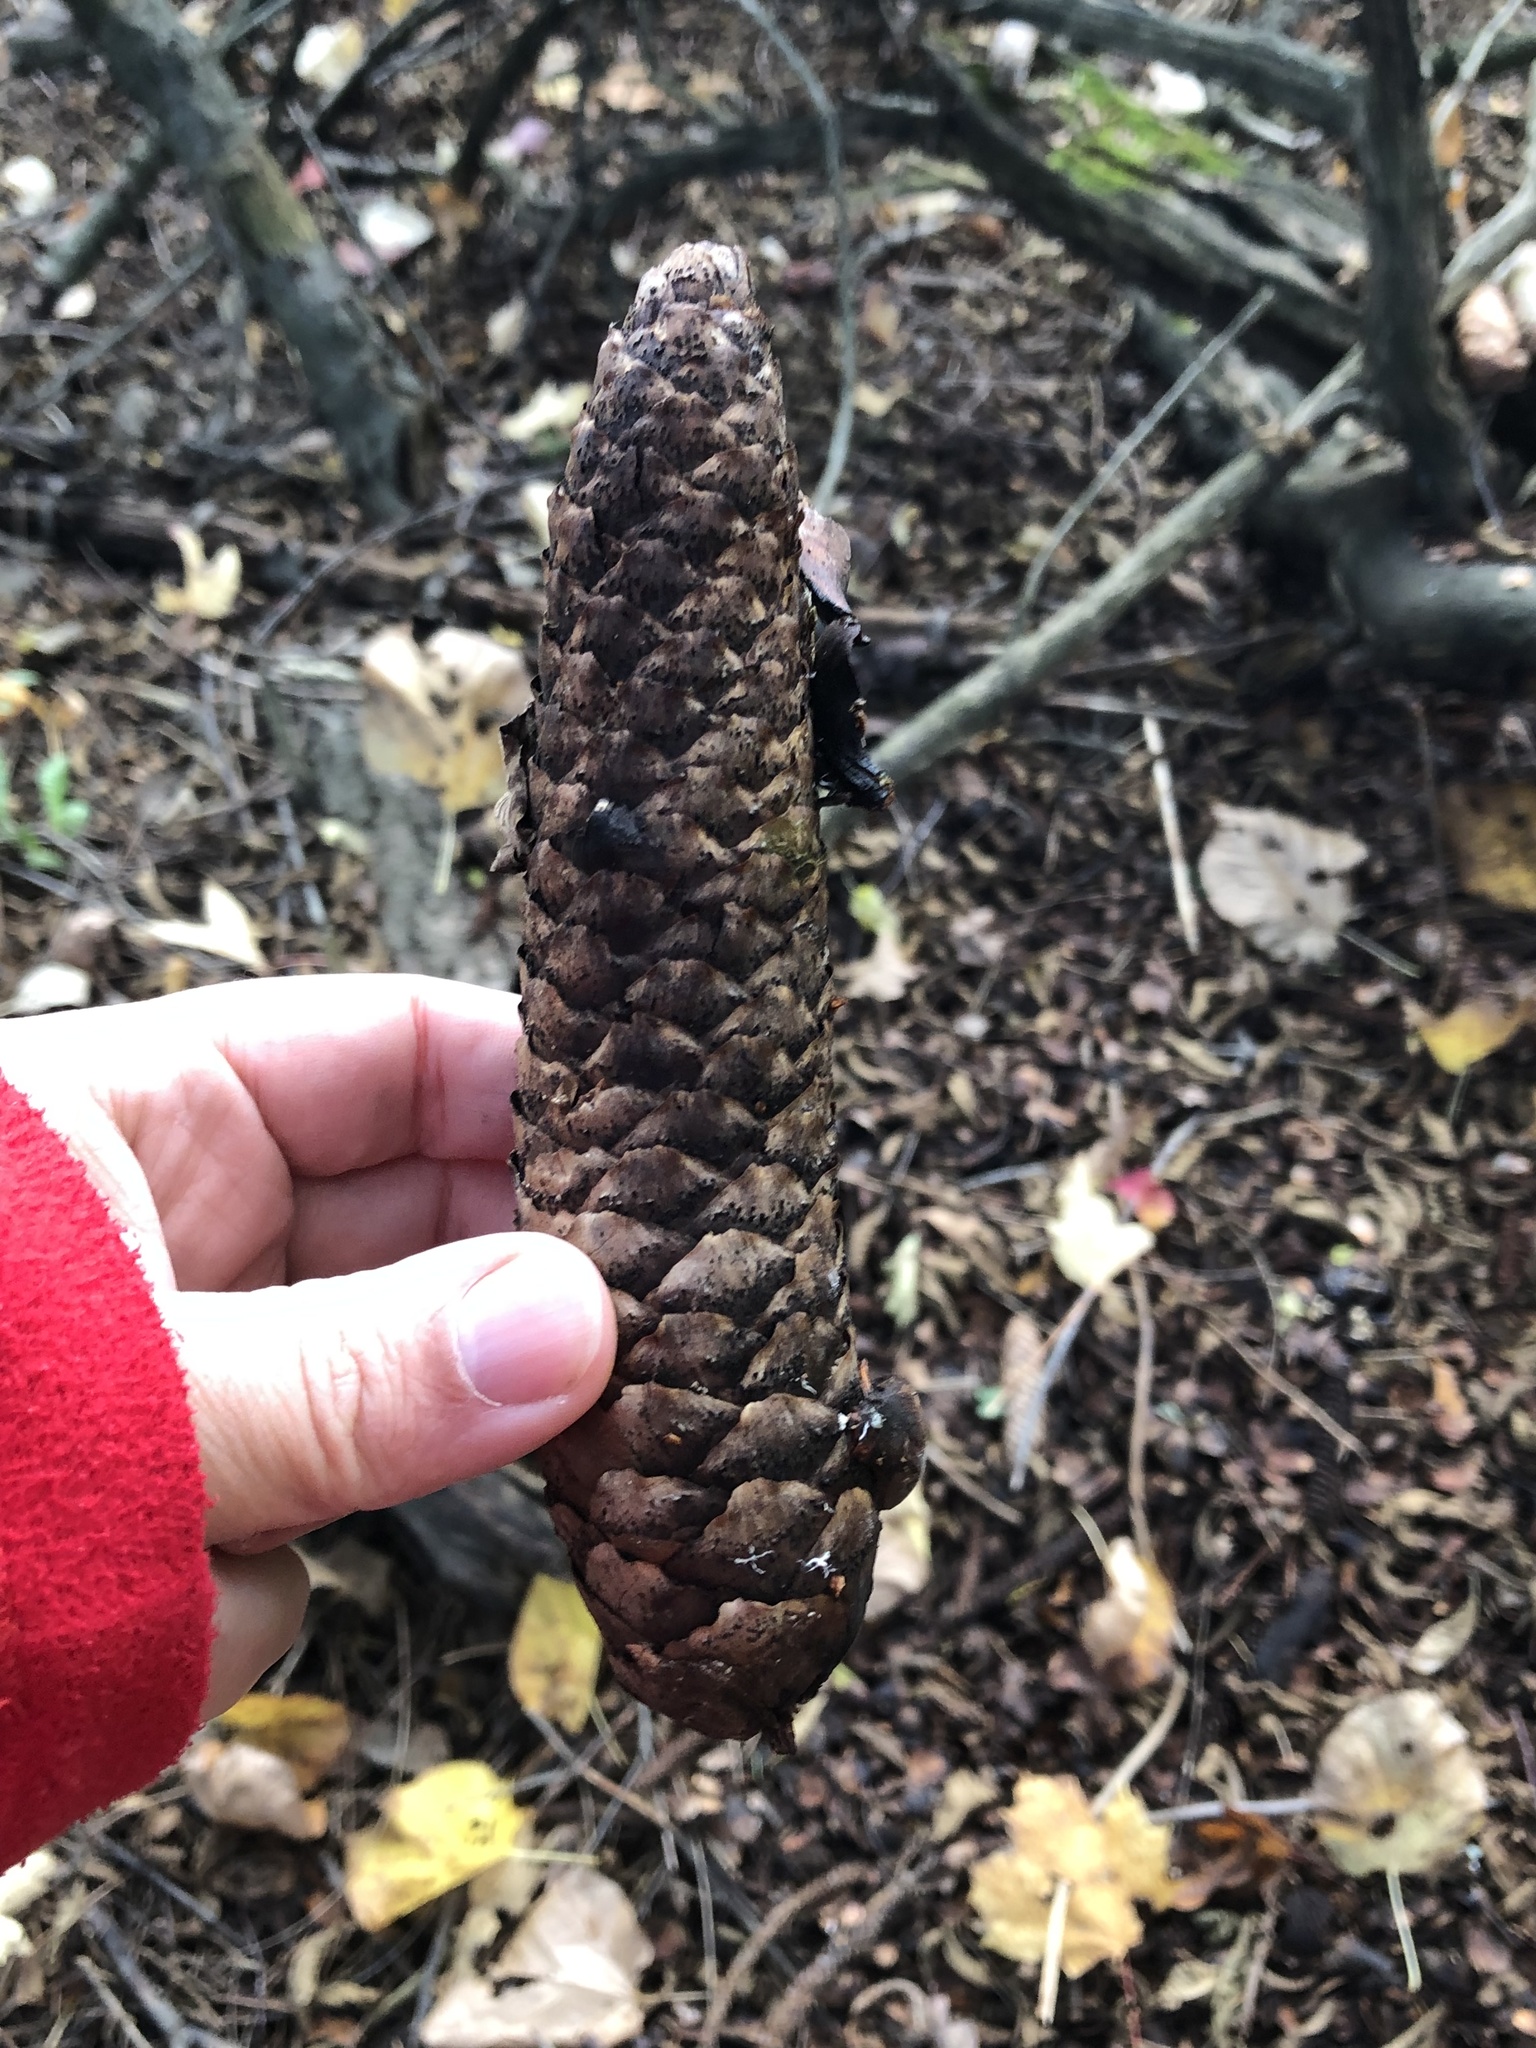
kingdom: Plantae
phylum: Tracheophyta
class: Pinopsida
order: Pinales
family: Pinaceae
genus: Picea
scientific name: Picea abies
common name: Norway spruce
